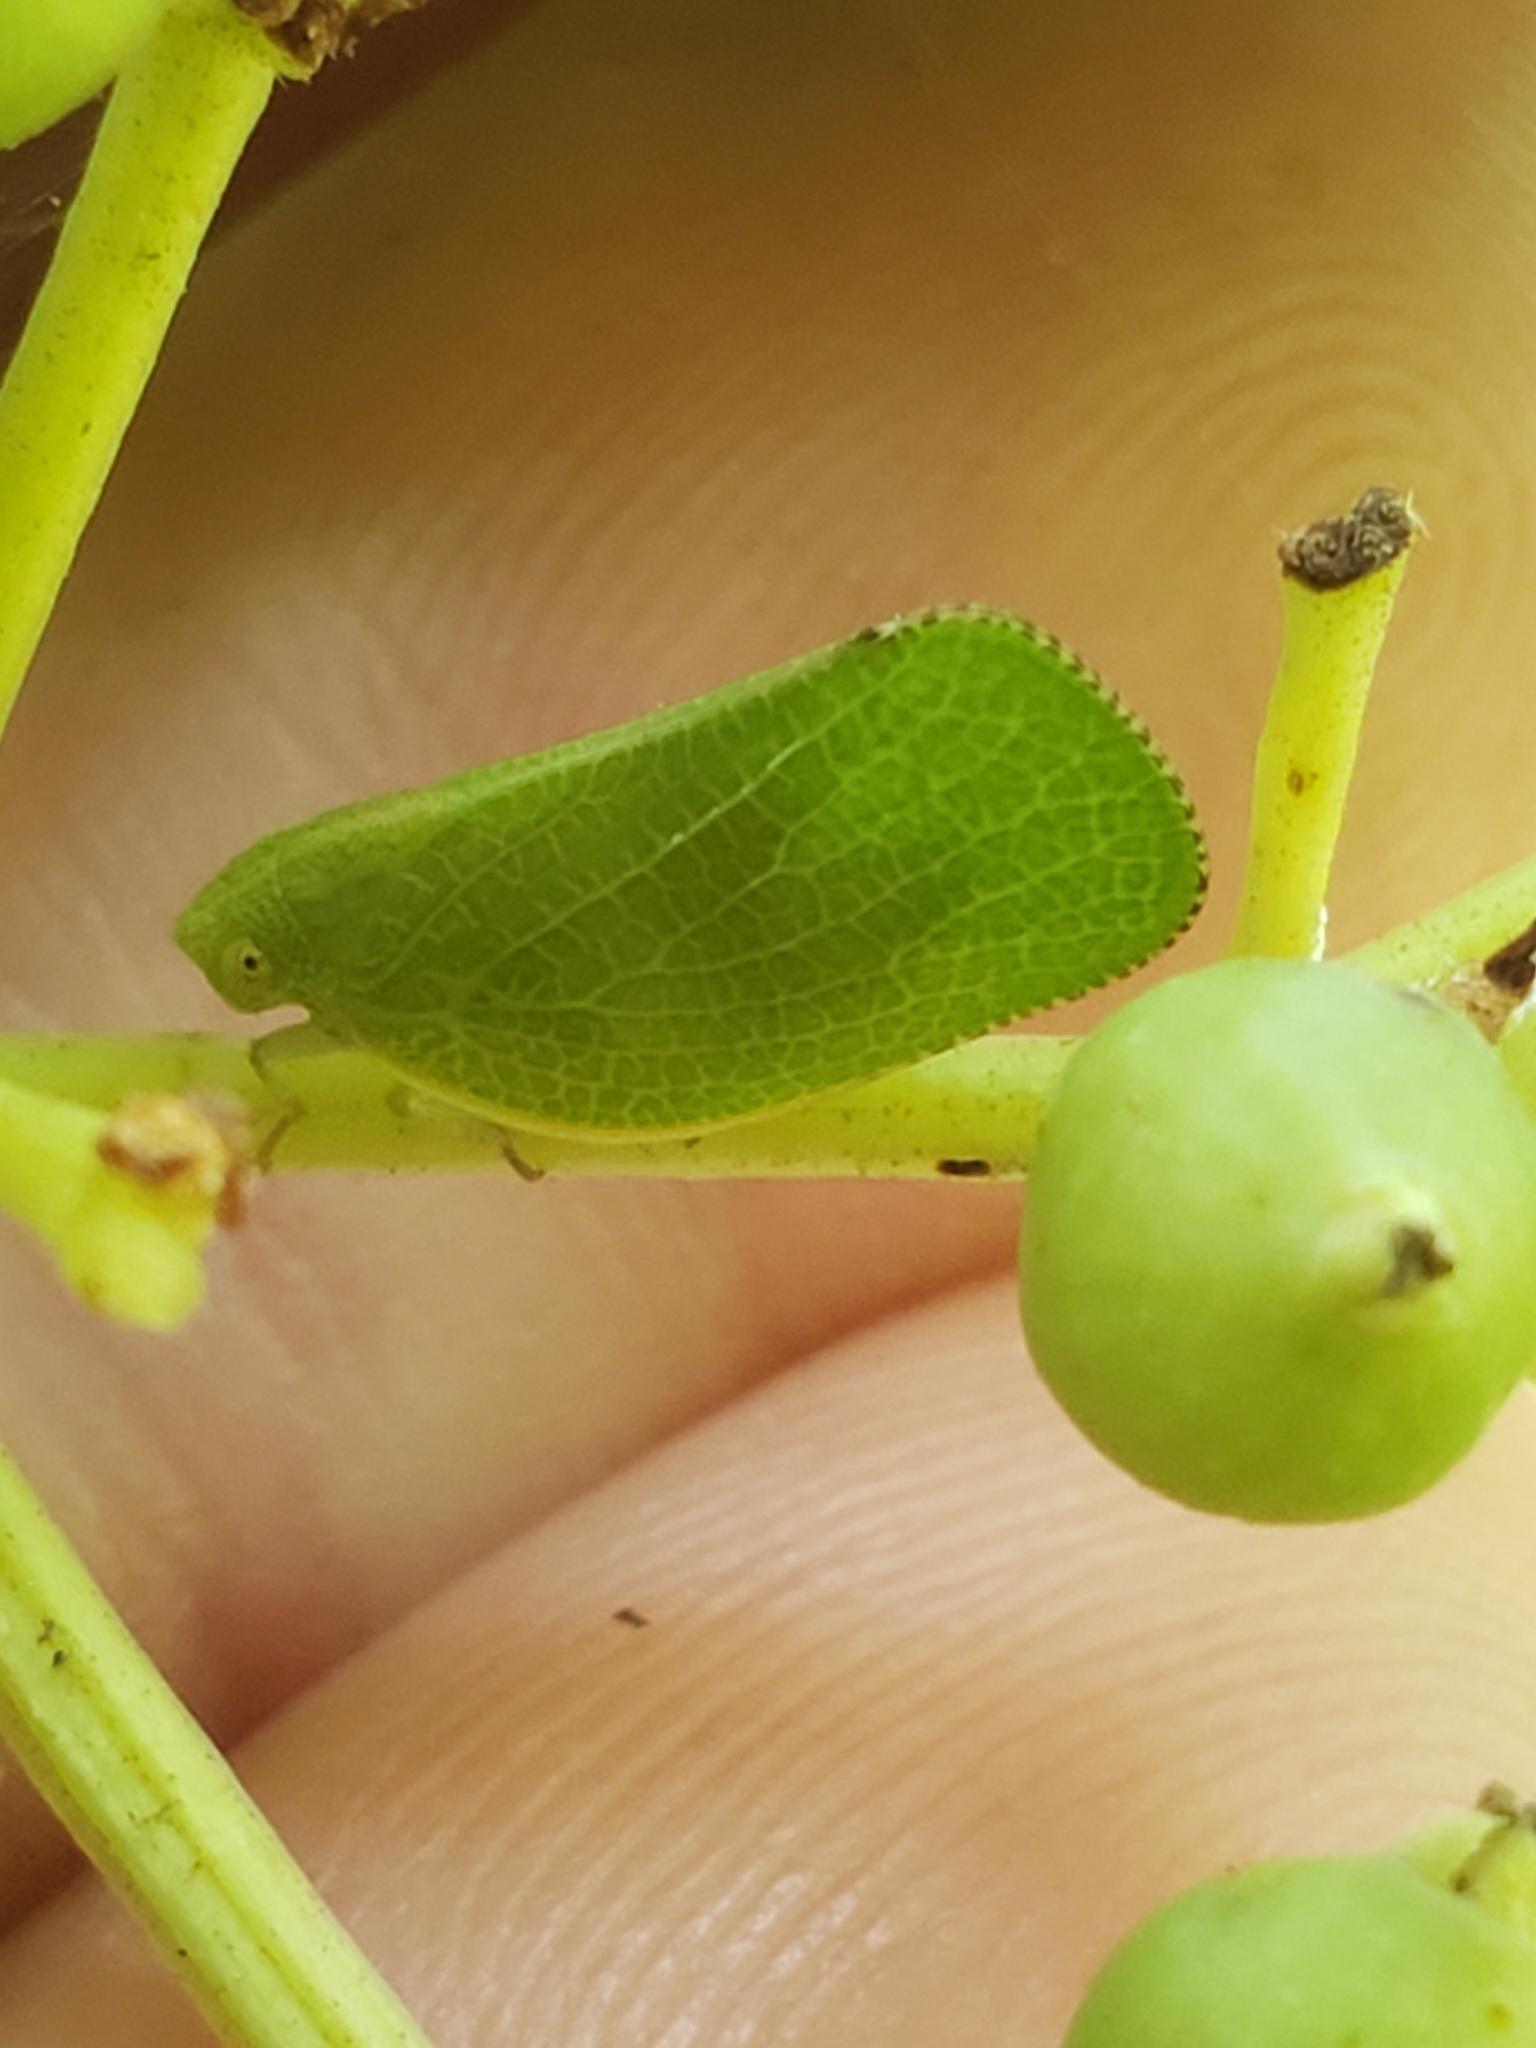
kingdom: Animalia
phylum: Arthropoda
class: Insecta
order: Hemiptera
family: Acanaloniidae
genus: Acanalonia
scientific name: Acanalonia conica
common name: Green cone-headed planthopper
